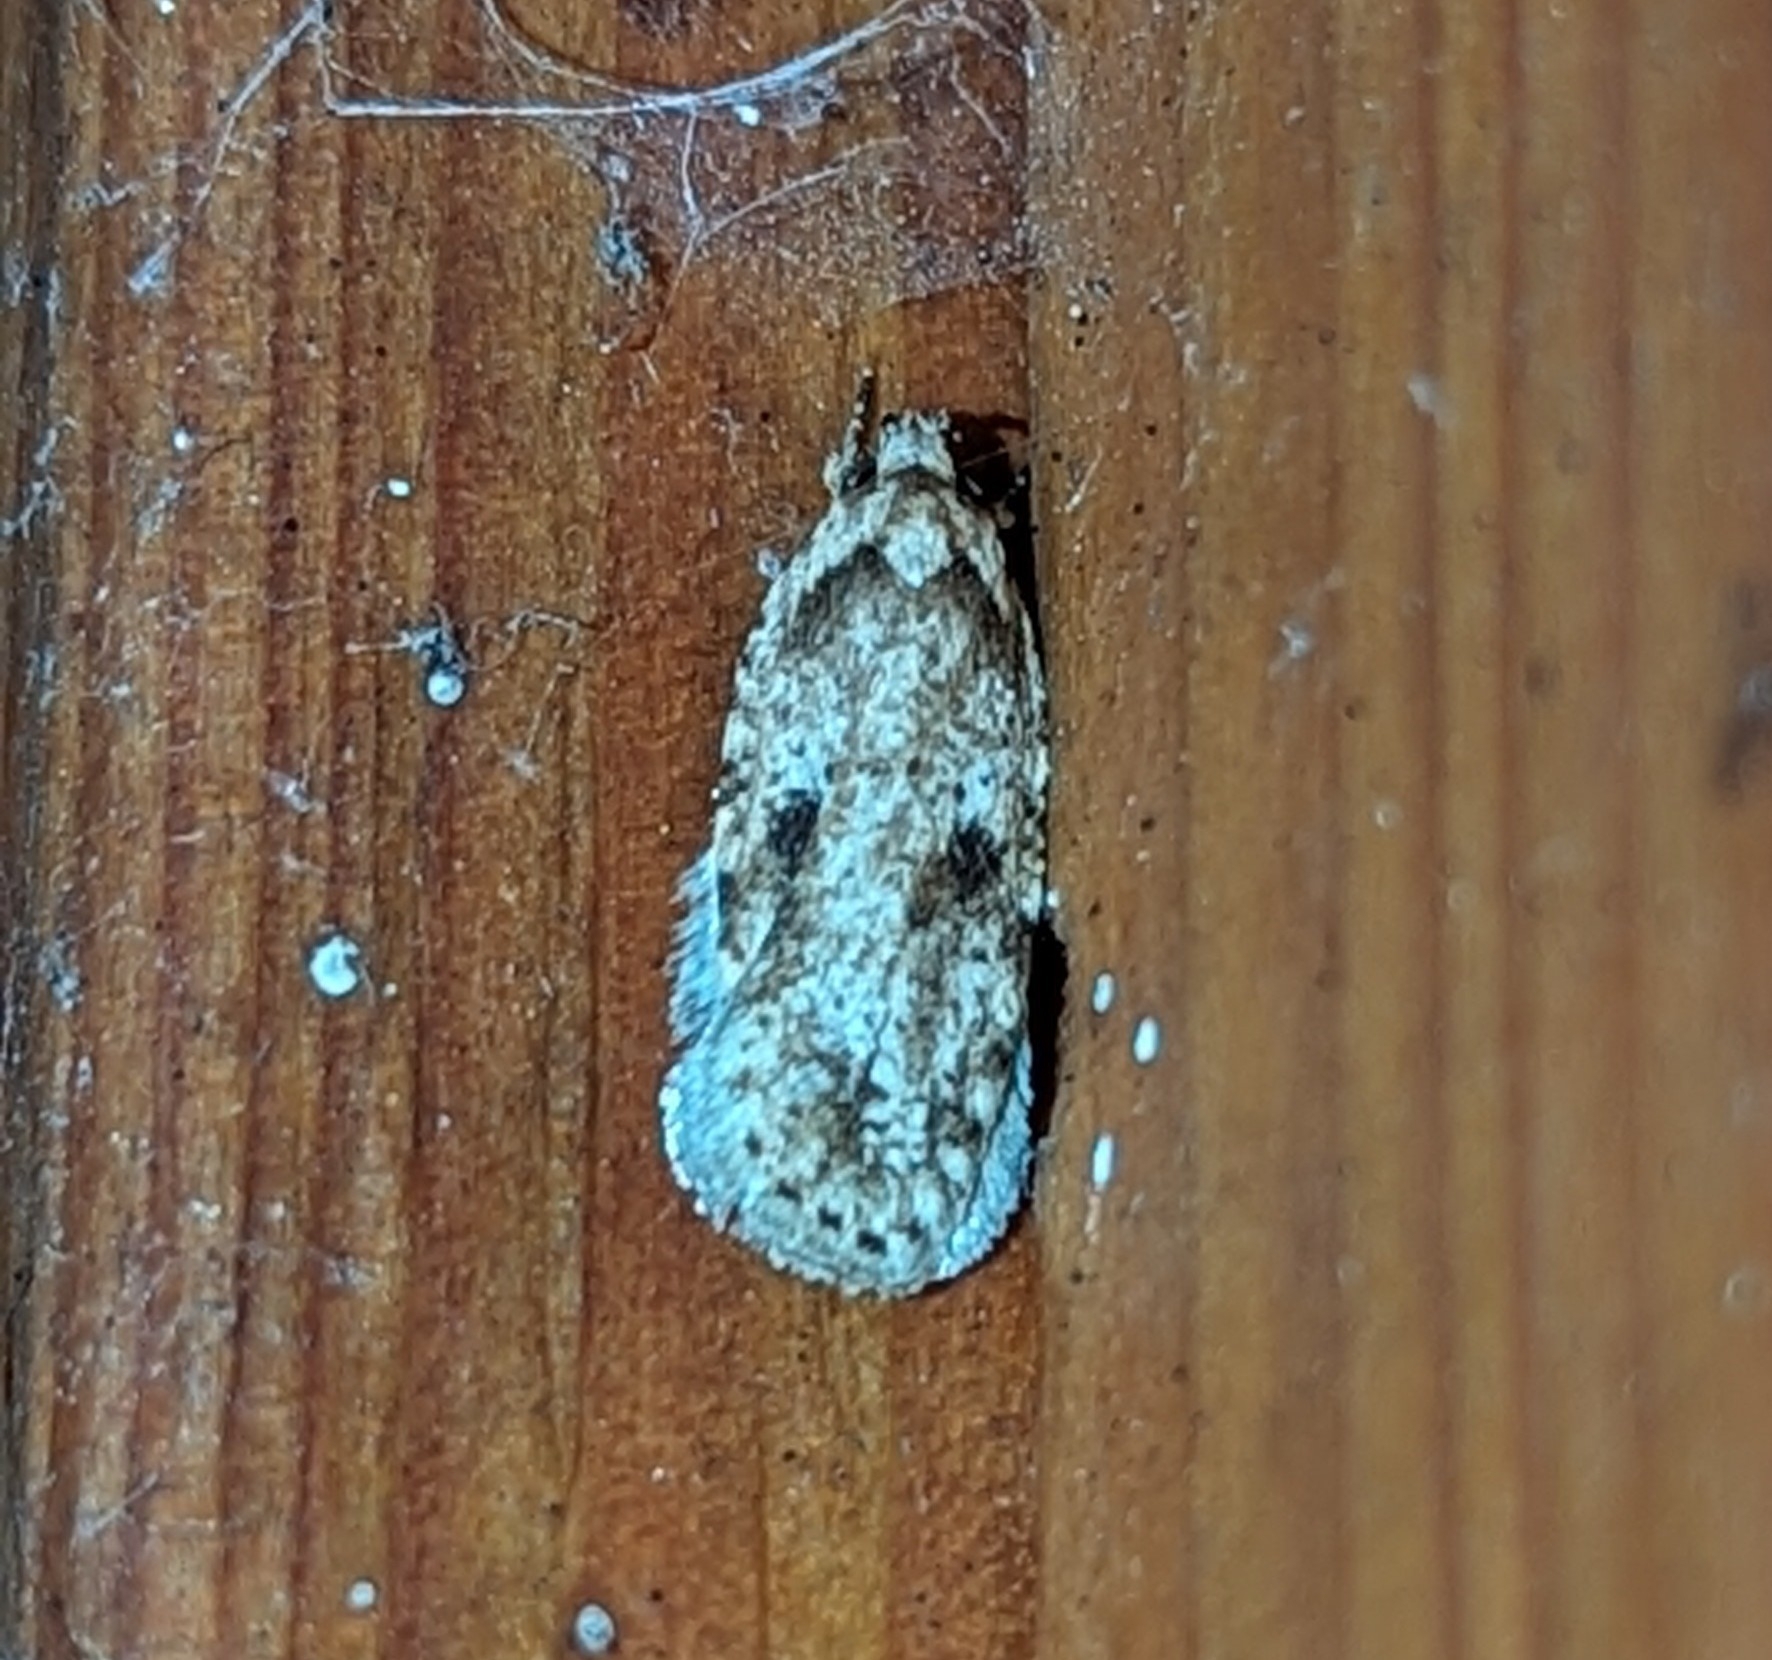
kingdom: Animalia
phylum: Arthropoda
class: Insecta
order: Lepidoptera
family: Depressariidae
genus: Agonopterix
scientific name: Agonopterix canadensis
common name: Canadian agonopterix moth
